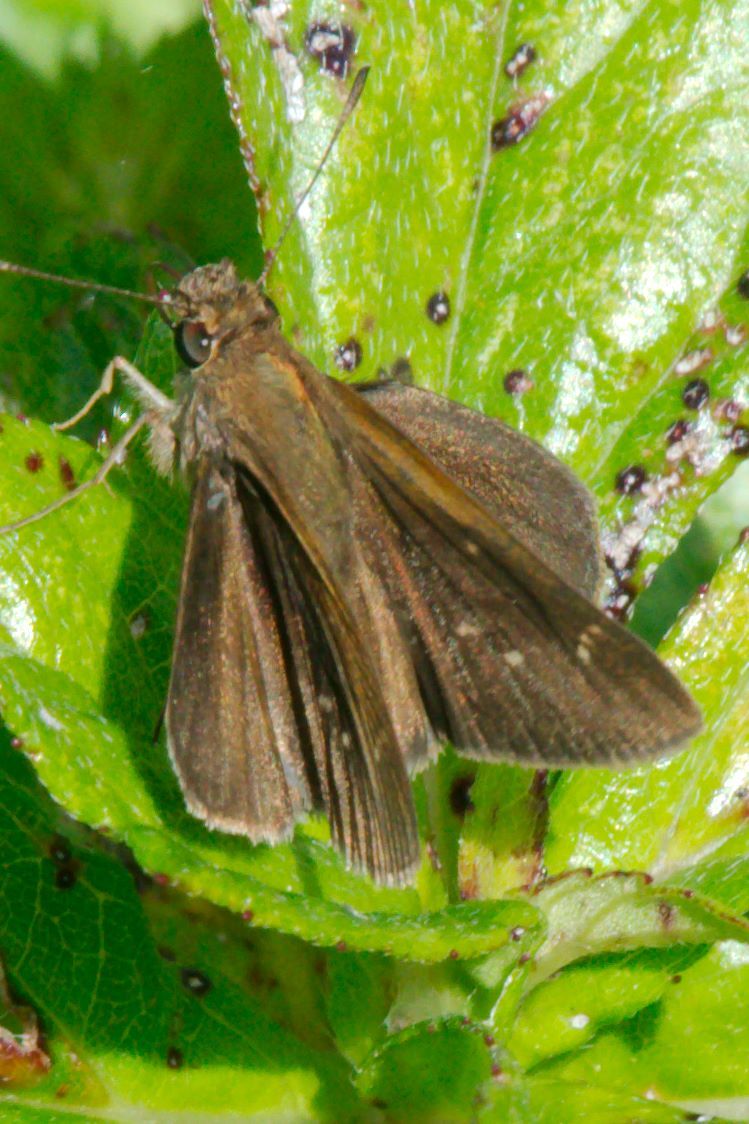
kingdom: Animalia
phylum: Arthropoda
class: Insecta
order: Lepidoptera
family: Hesperiidae
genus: Cymaenes
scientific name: Cymaenes tripunctus
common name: Dingy dotted skipper
